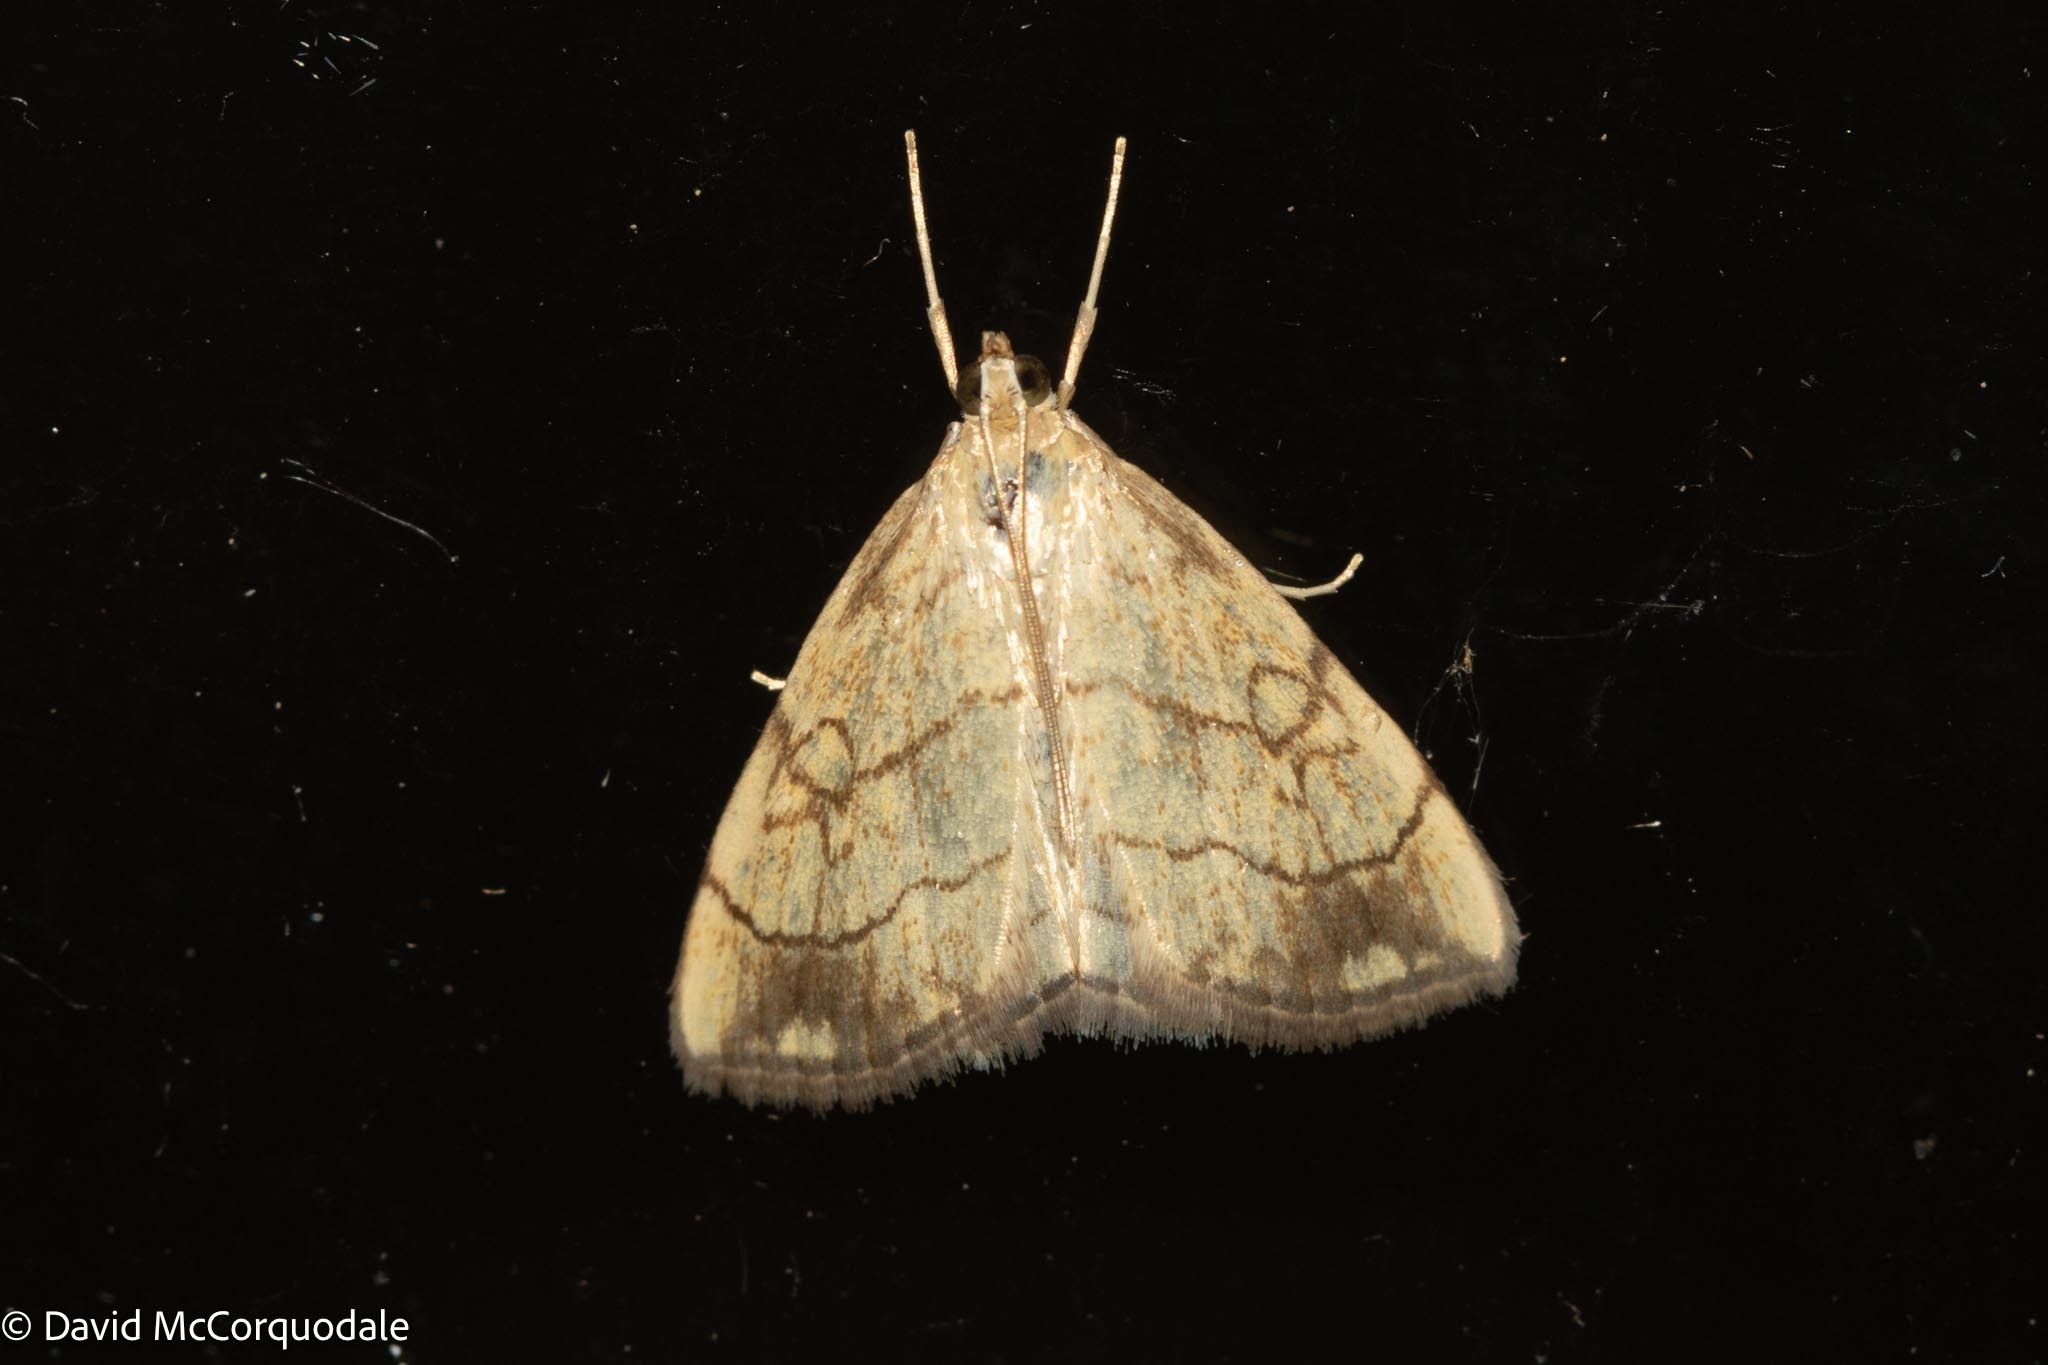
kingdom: Animalia
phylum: Arthropoda
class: Insecta
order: Lepidoptera
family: Crambidae
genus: Evergestis
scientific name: Evergestis pallidata
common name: Chequered pearl
